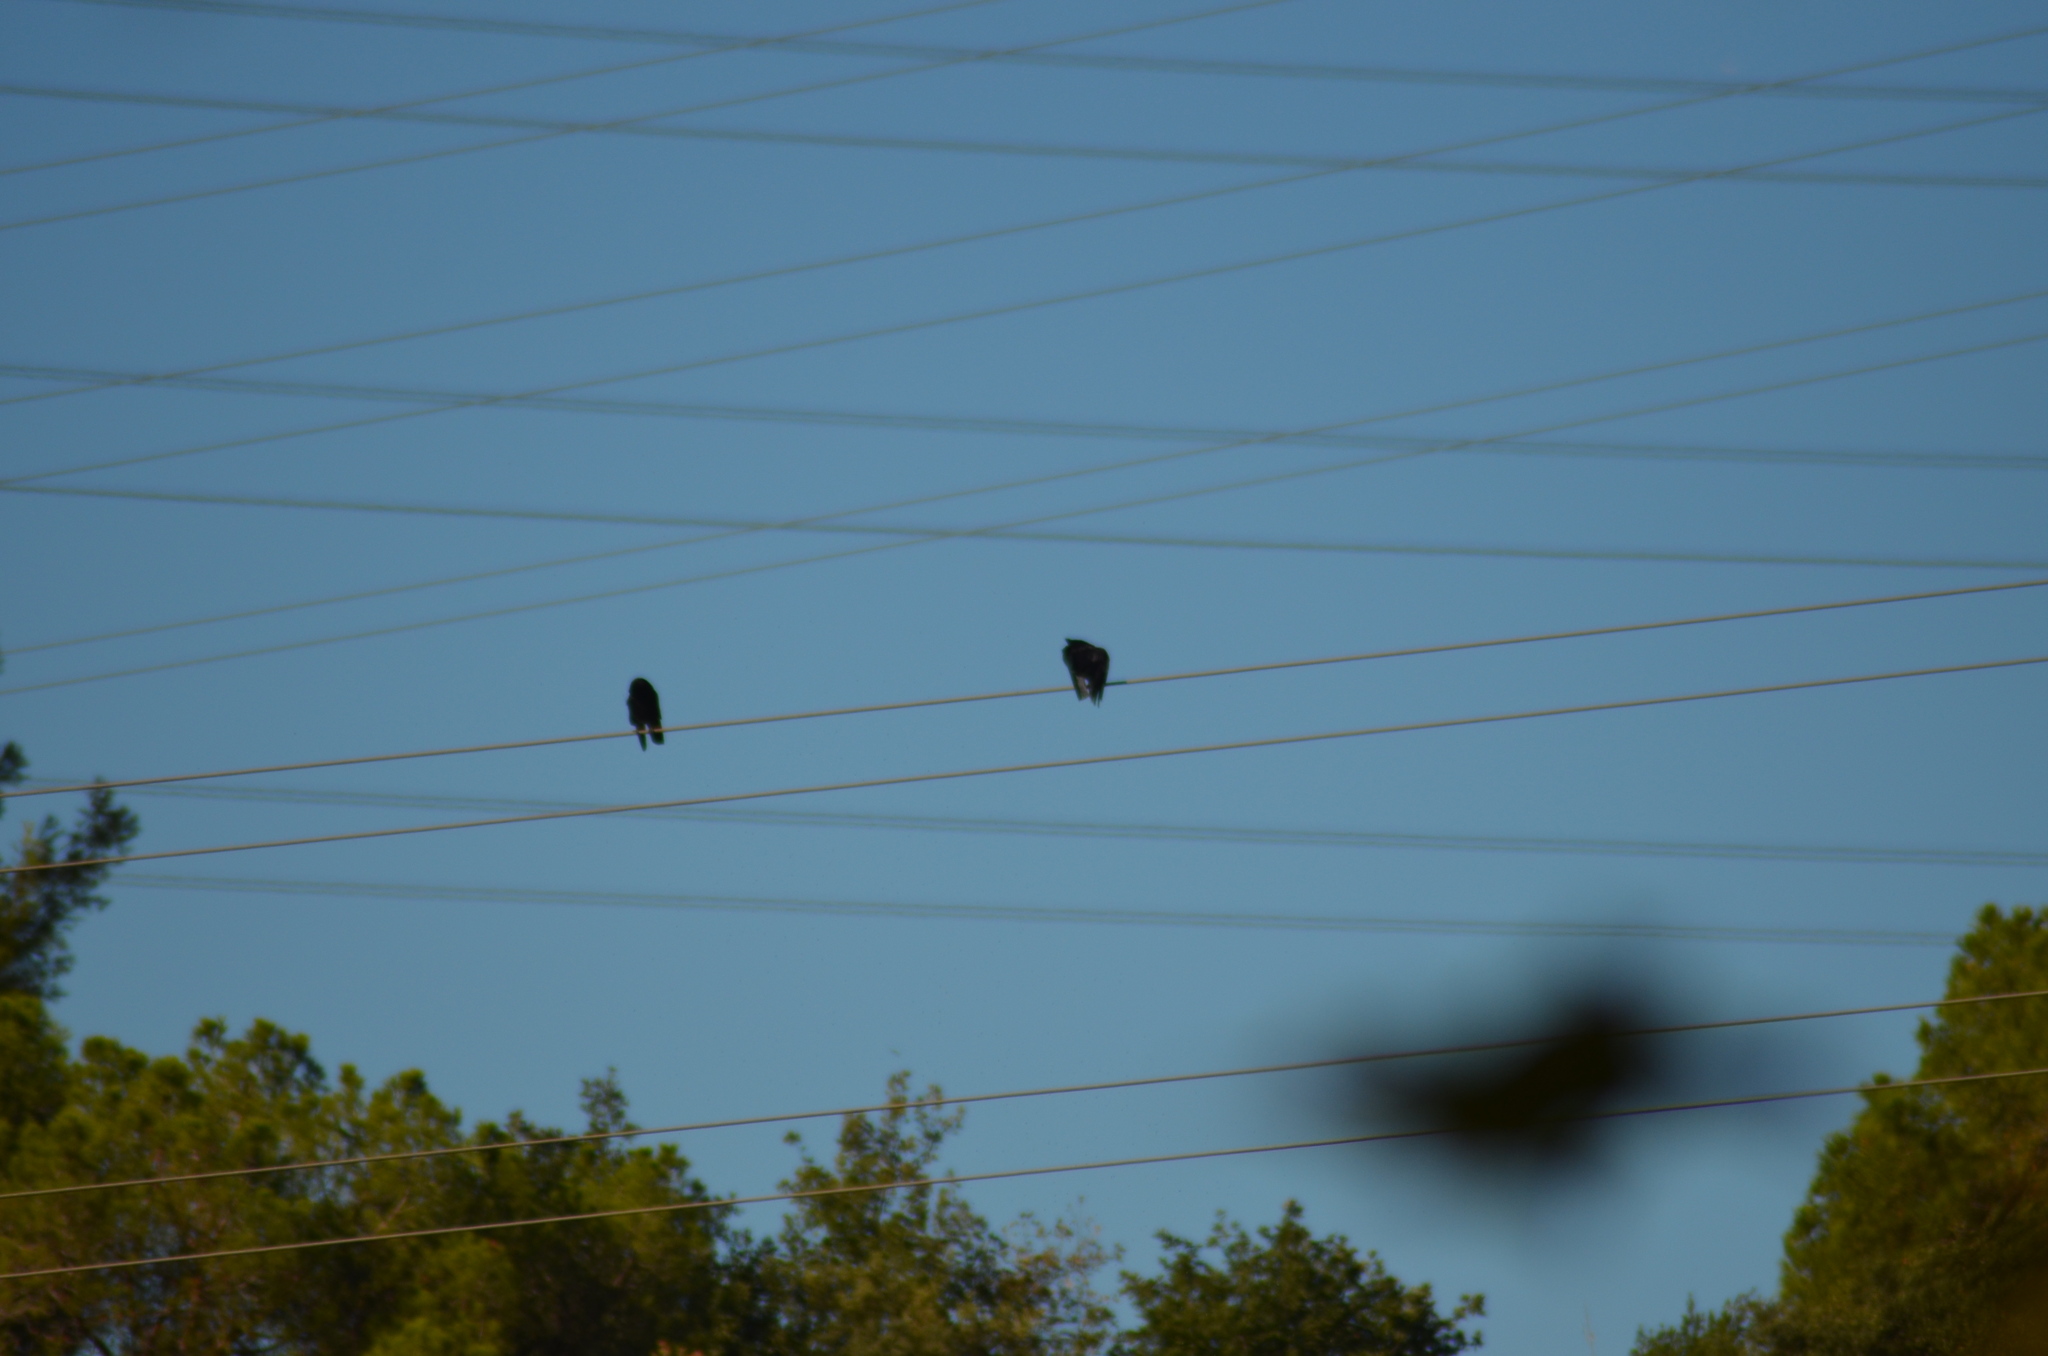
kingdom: Animalia
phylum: Chordata
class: Aves
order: Passeriformes
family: Corvidae
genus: Corvus
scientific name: Corvus corone
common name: Carrion crow
